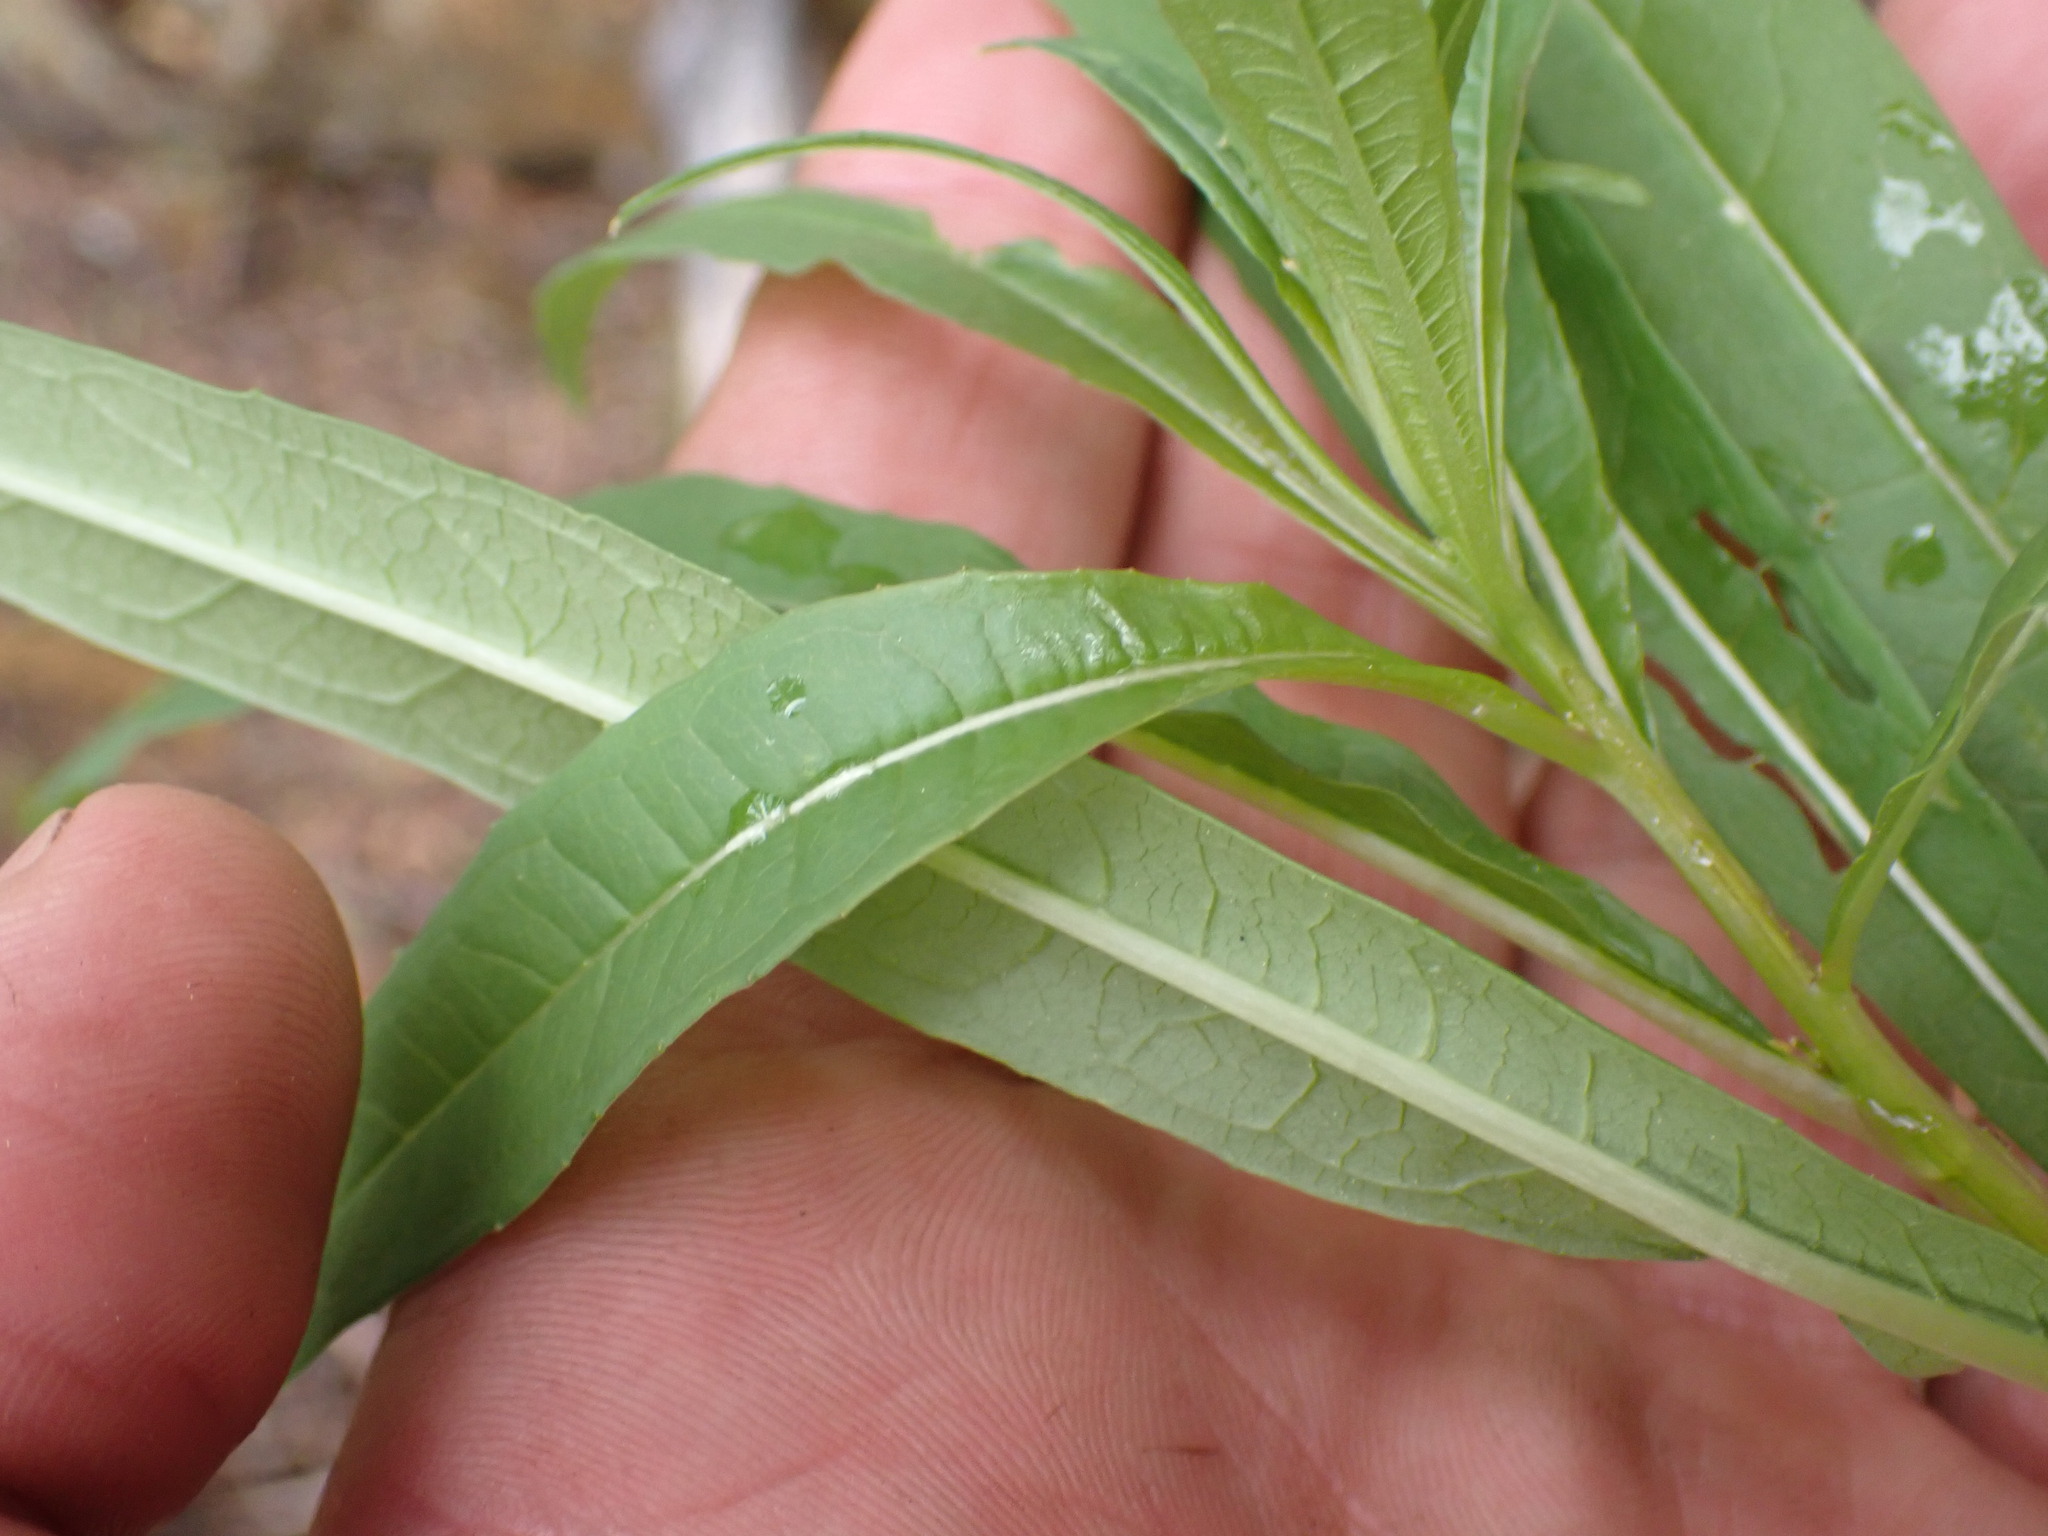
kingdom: Plantae
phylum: Tracheophyta
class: Magnoliopsida
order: Myrtales
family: Onagraceae
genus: Chamaenerion
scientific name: Chamaenerion angustifolium
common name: Fireweed
